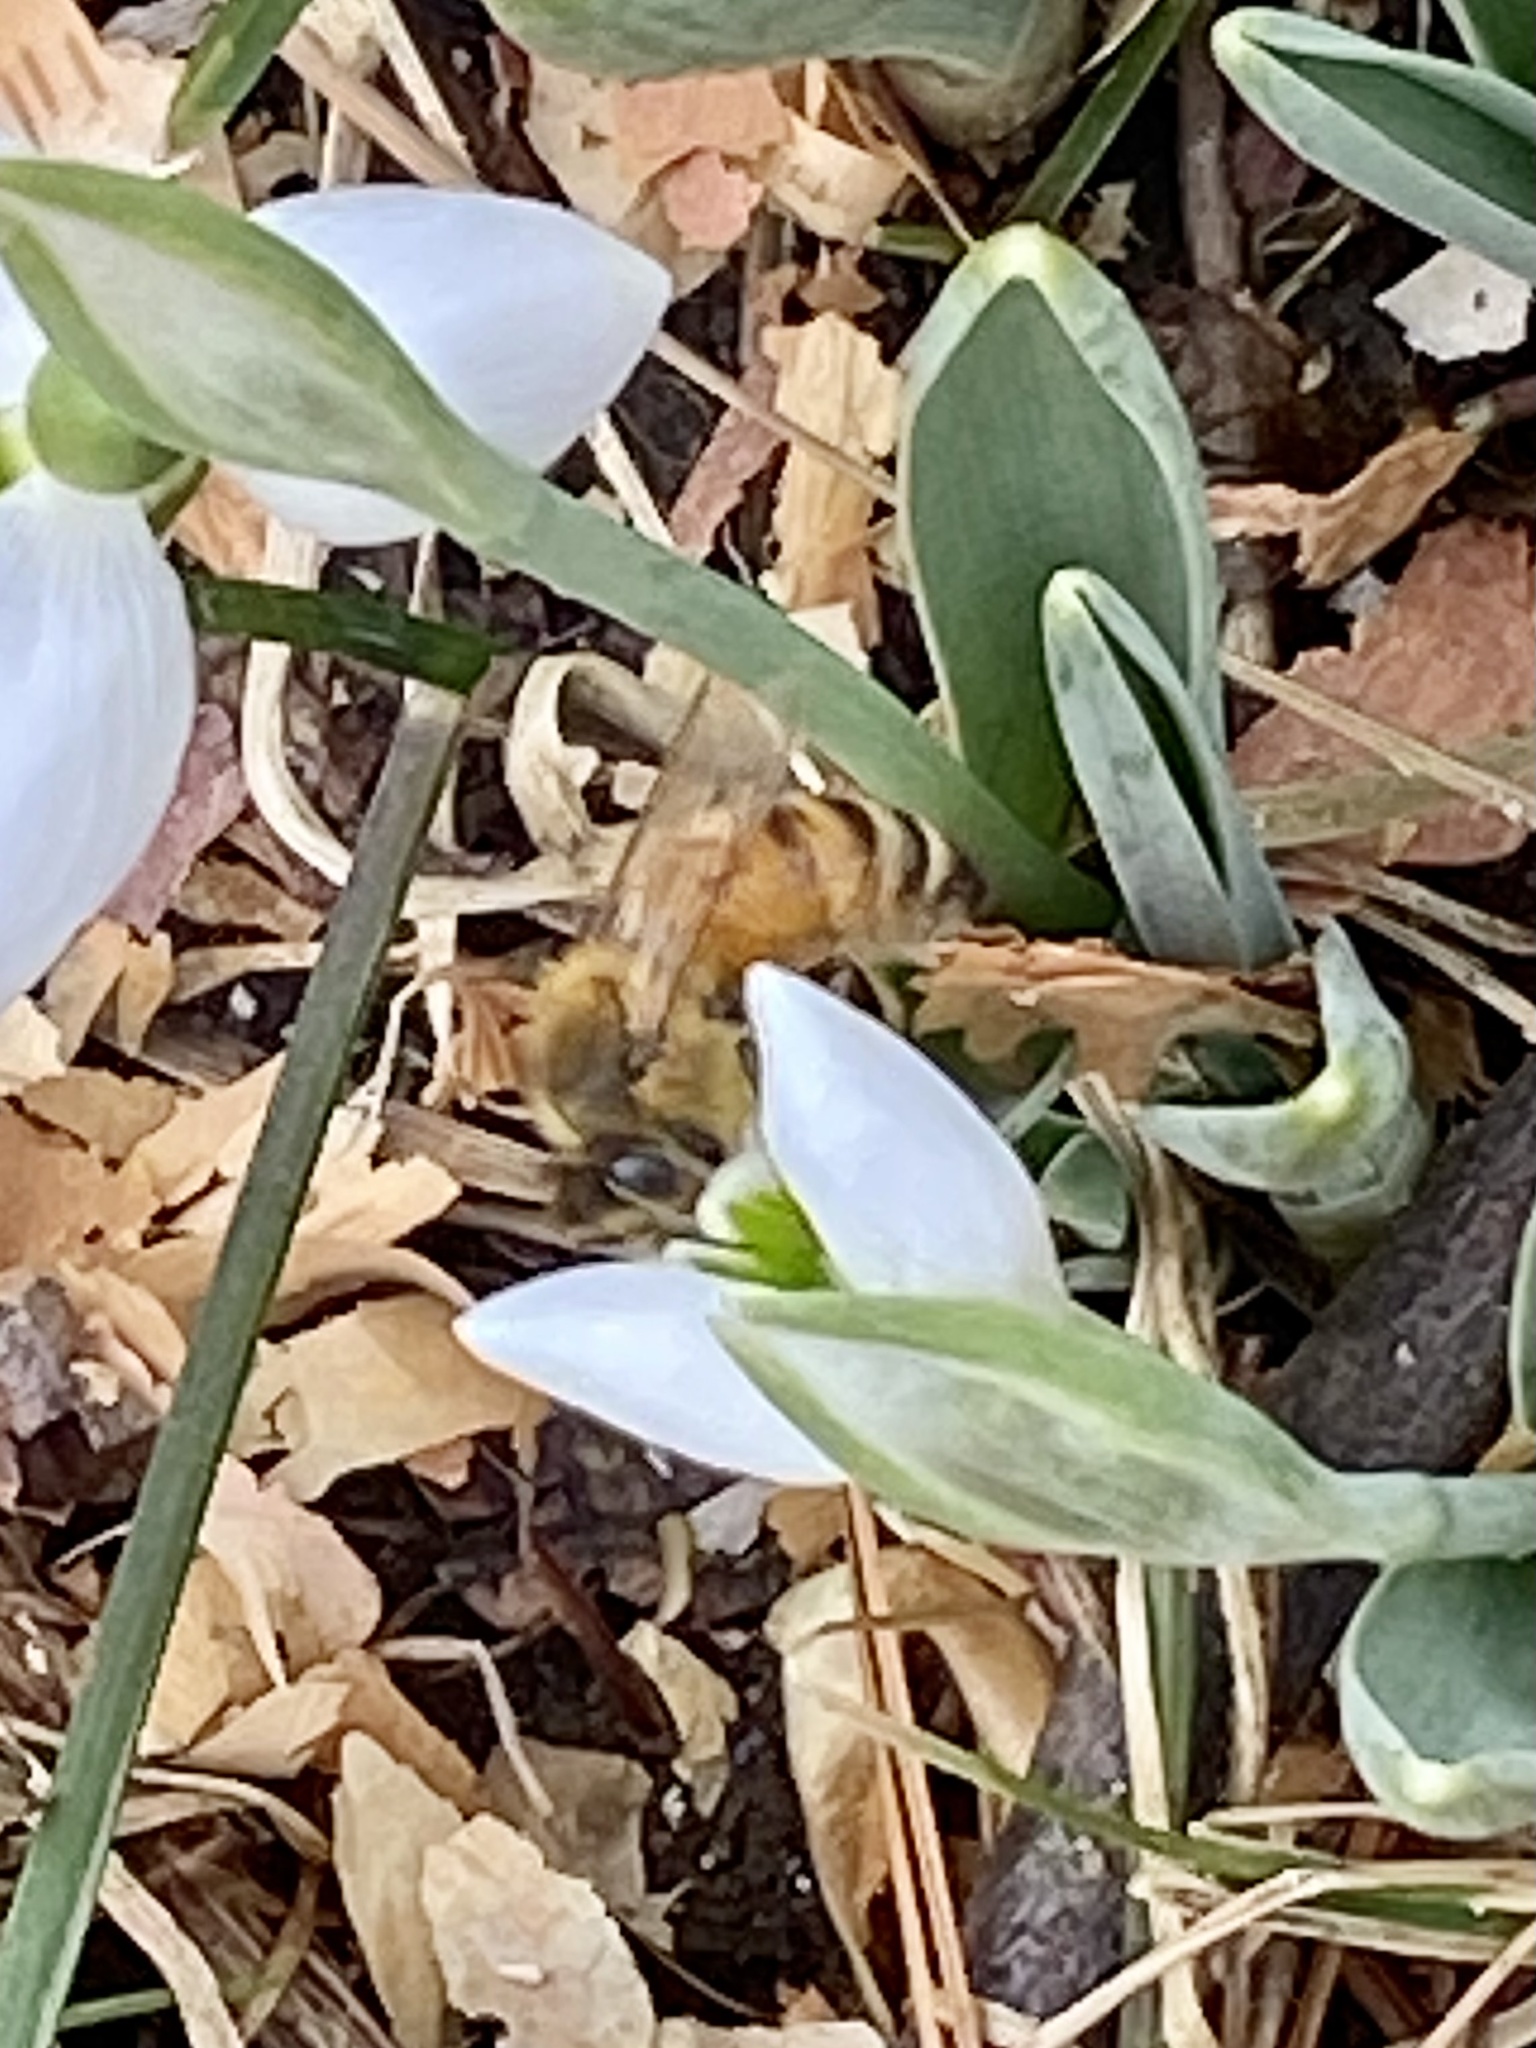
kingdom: Animalia
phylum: Arthropoda
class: Insecta
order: Hymenoptera
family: Apidae
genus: Apis
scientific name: Apis mellifera
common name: Honey bee
